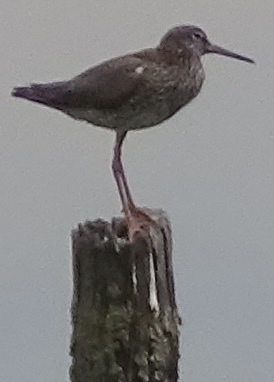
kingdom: Animalia
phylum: Chordata
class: Aves
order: Charadriiformes
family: Scolopacidae
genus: Tringa
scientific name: Tringa totanus
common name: Common redshank
